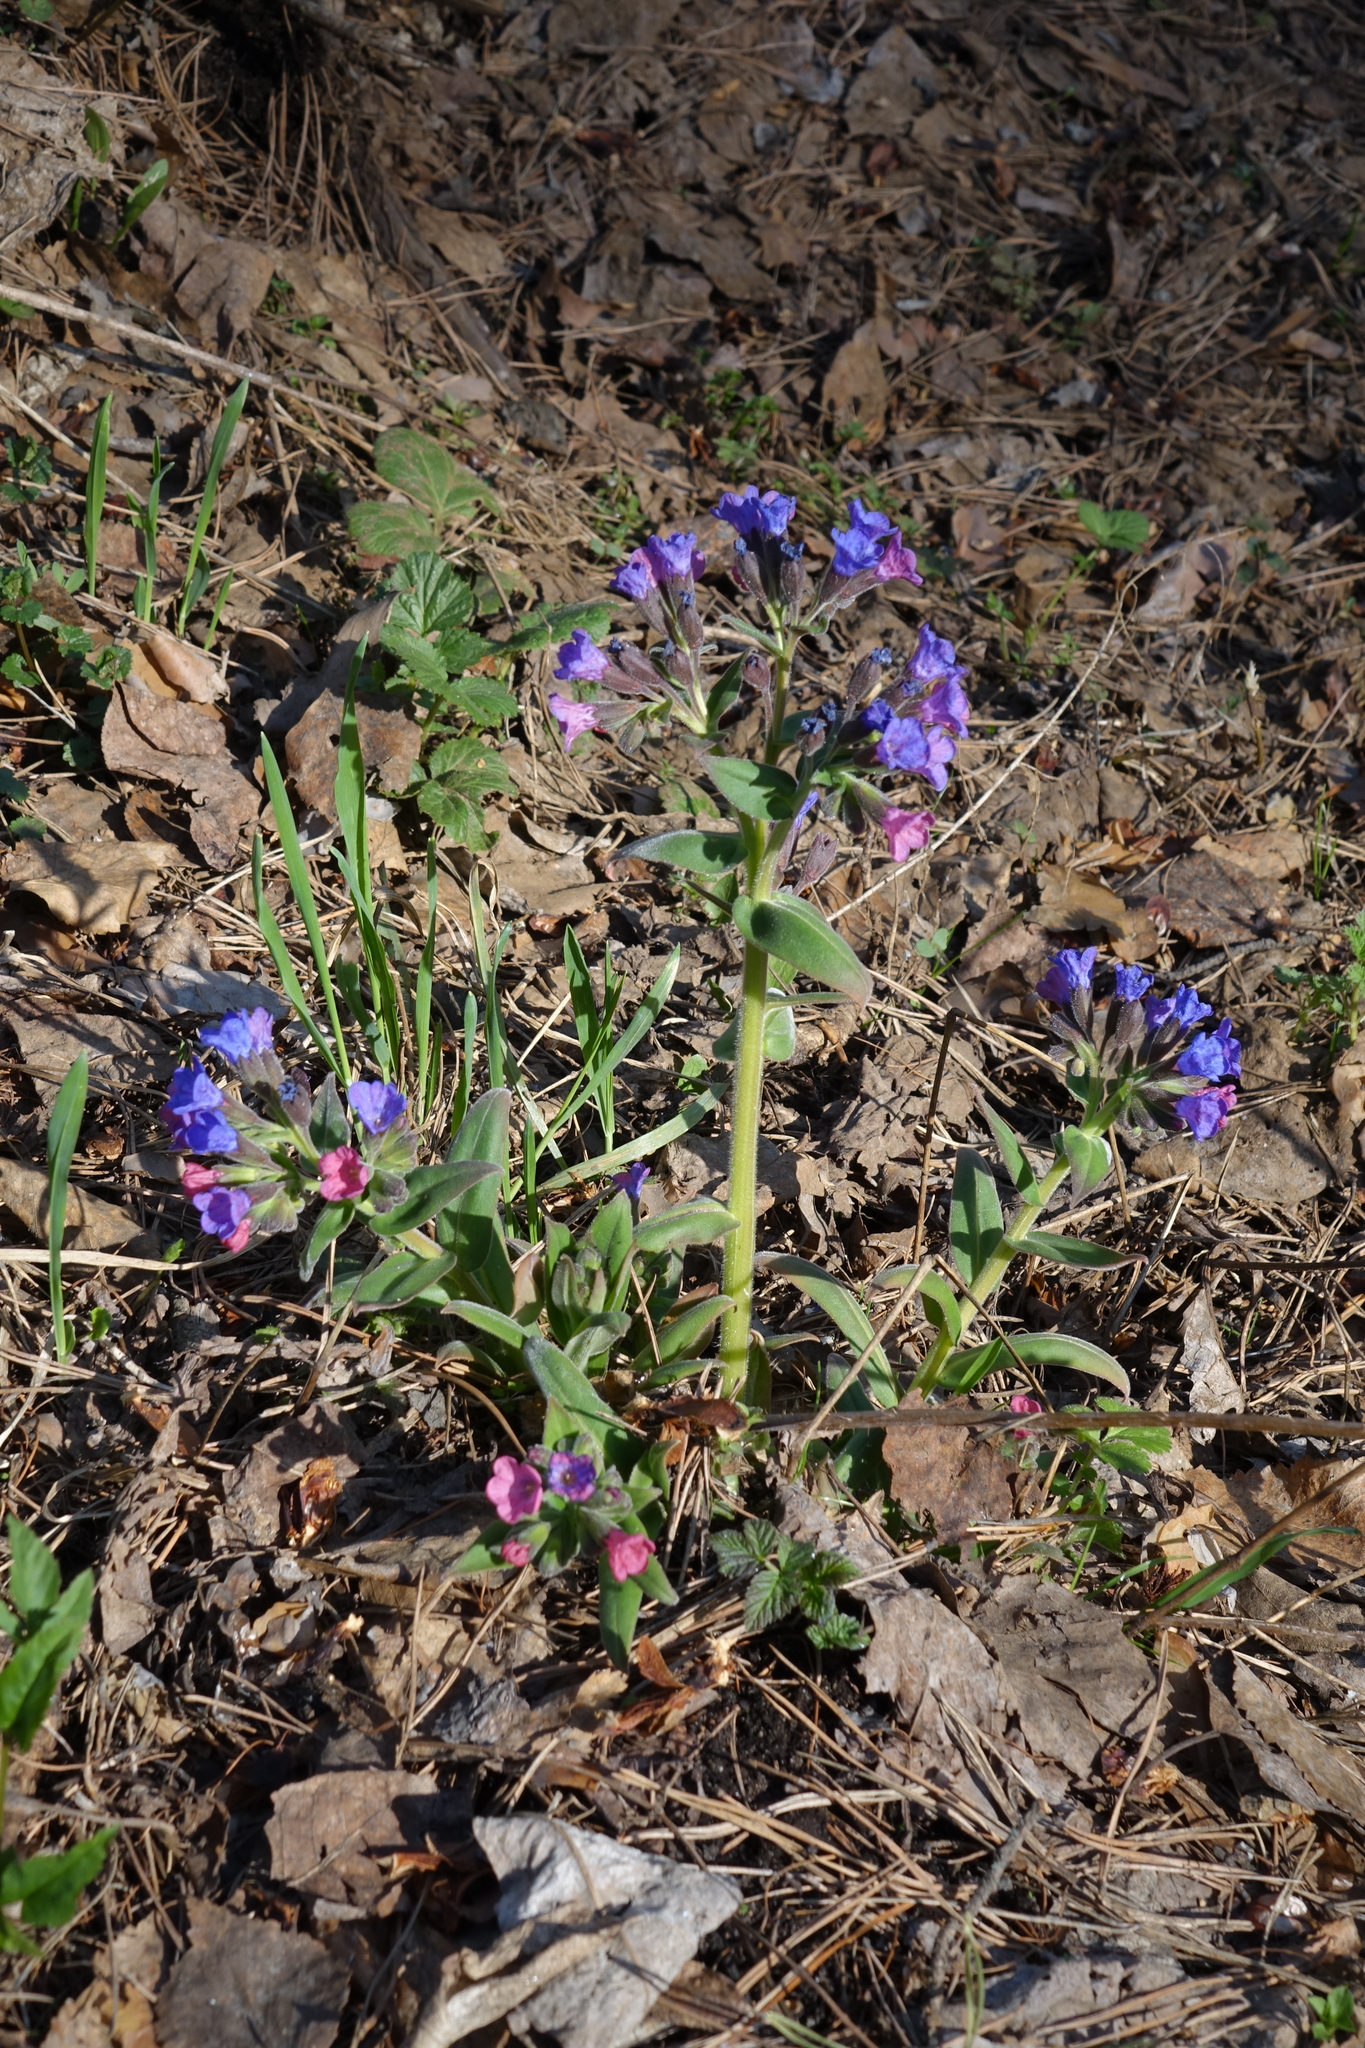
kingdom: Plantae
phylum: Tracheophyta
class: Magnoliopsida
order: Boraginales
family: Boraginaceae
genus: Pulmonaria
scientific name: Pulmonaria mollis
